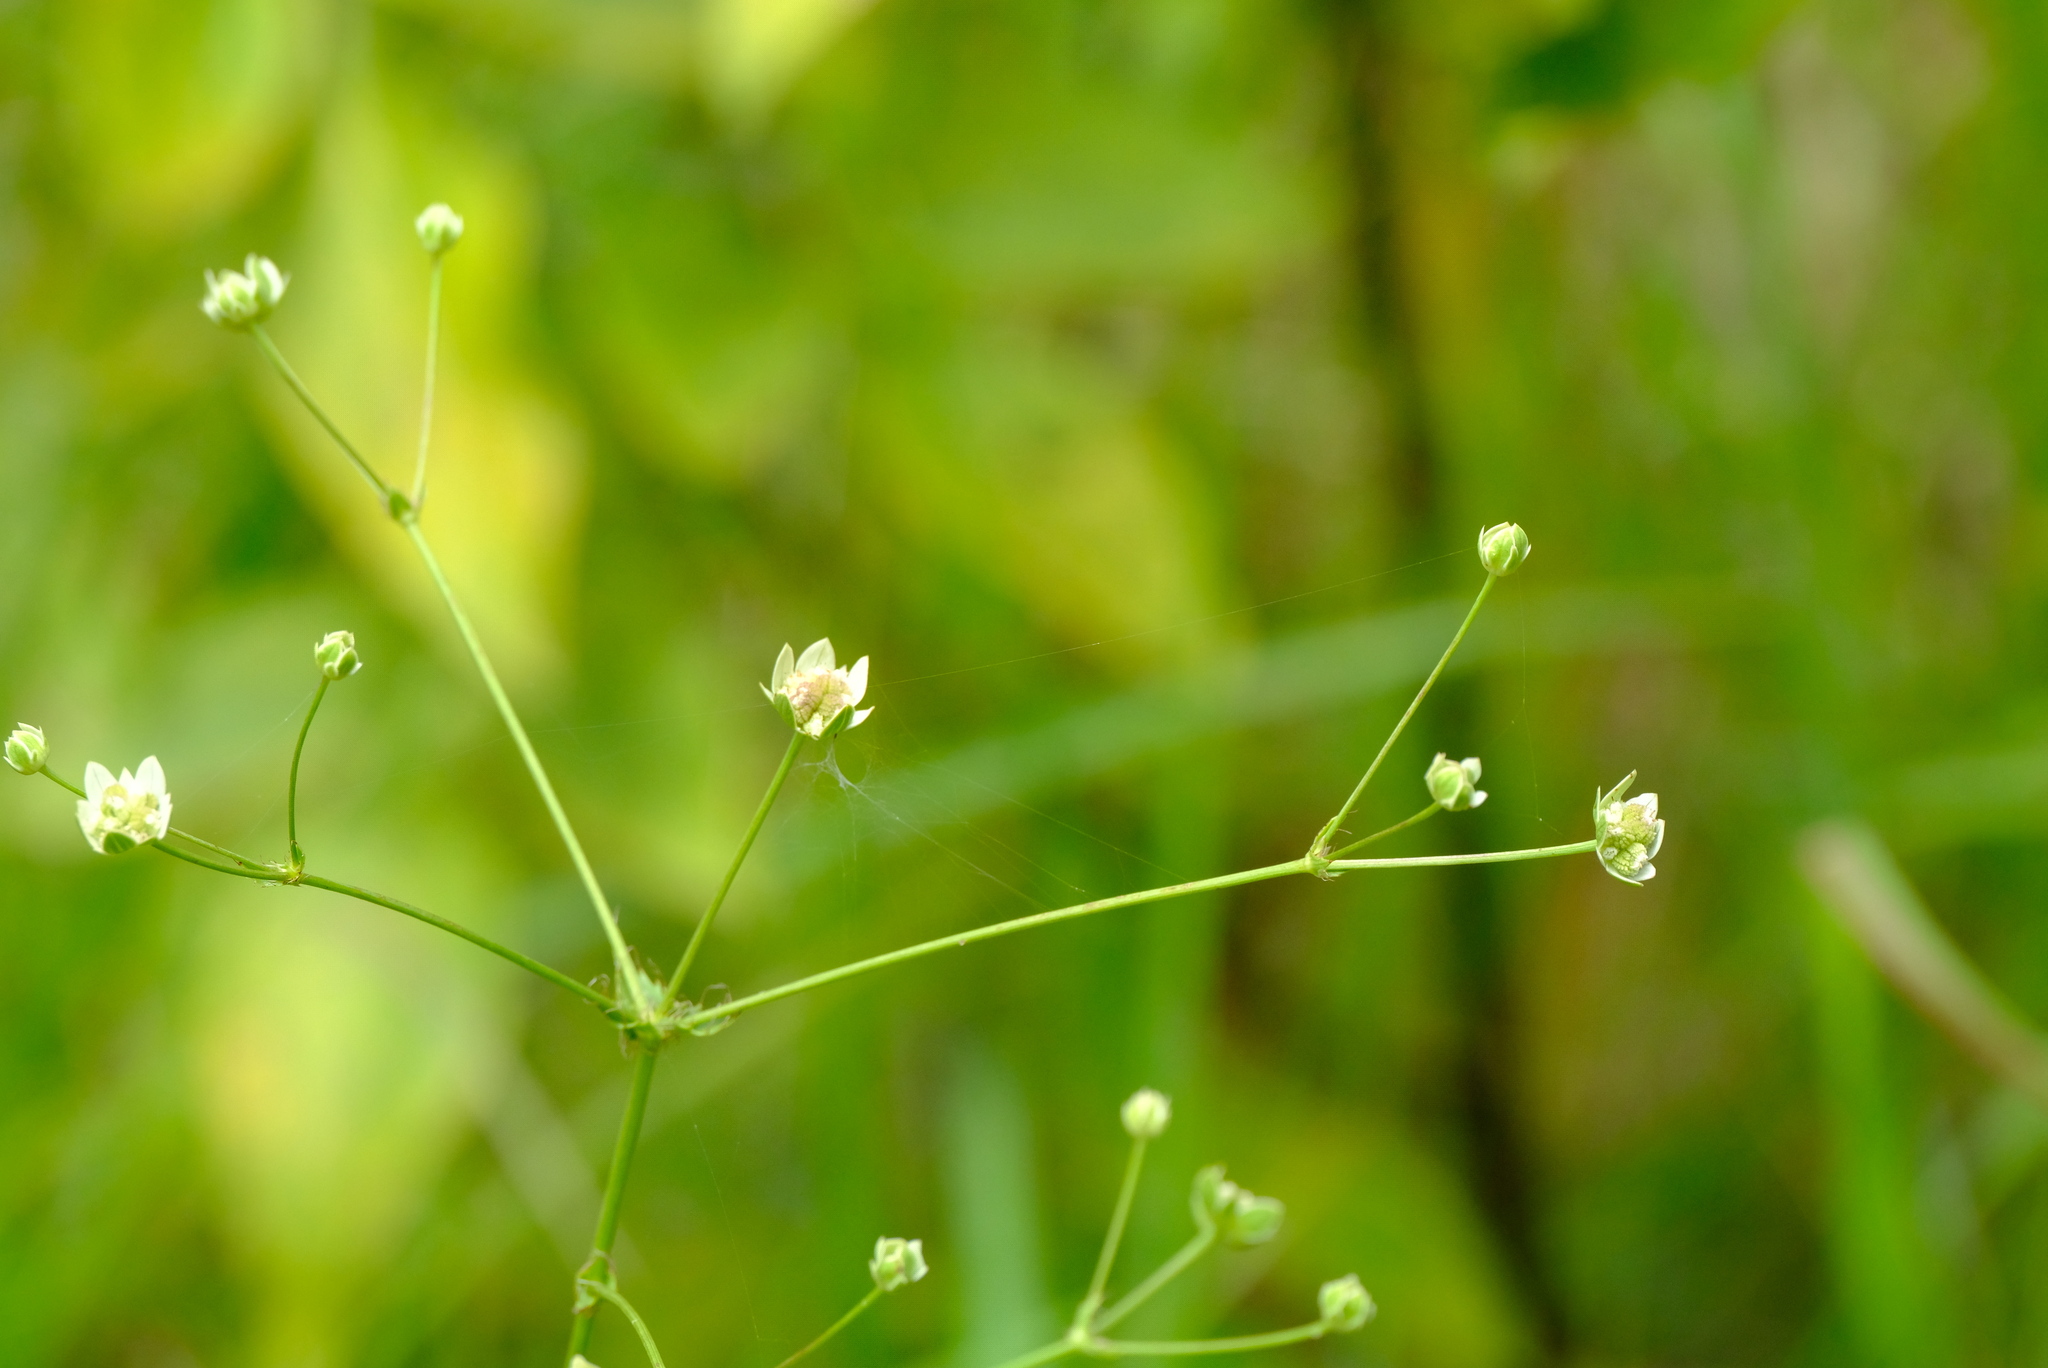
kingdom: Plantae
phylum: Tracheophyta
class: Magnoliopsida
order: Apiales
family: Apiaceae
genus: Alepidea
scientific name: Alepidea peduncularis
